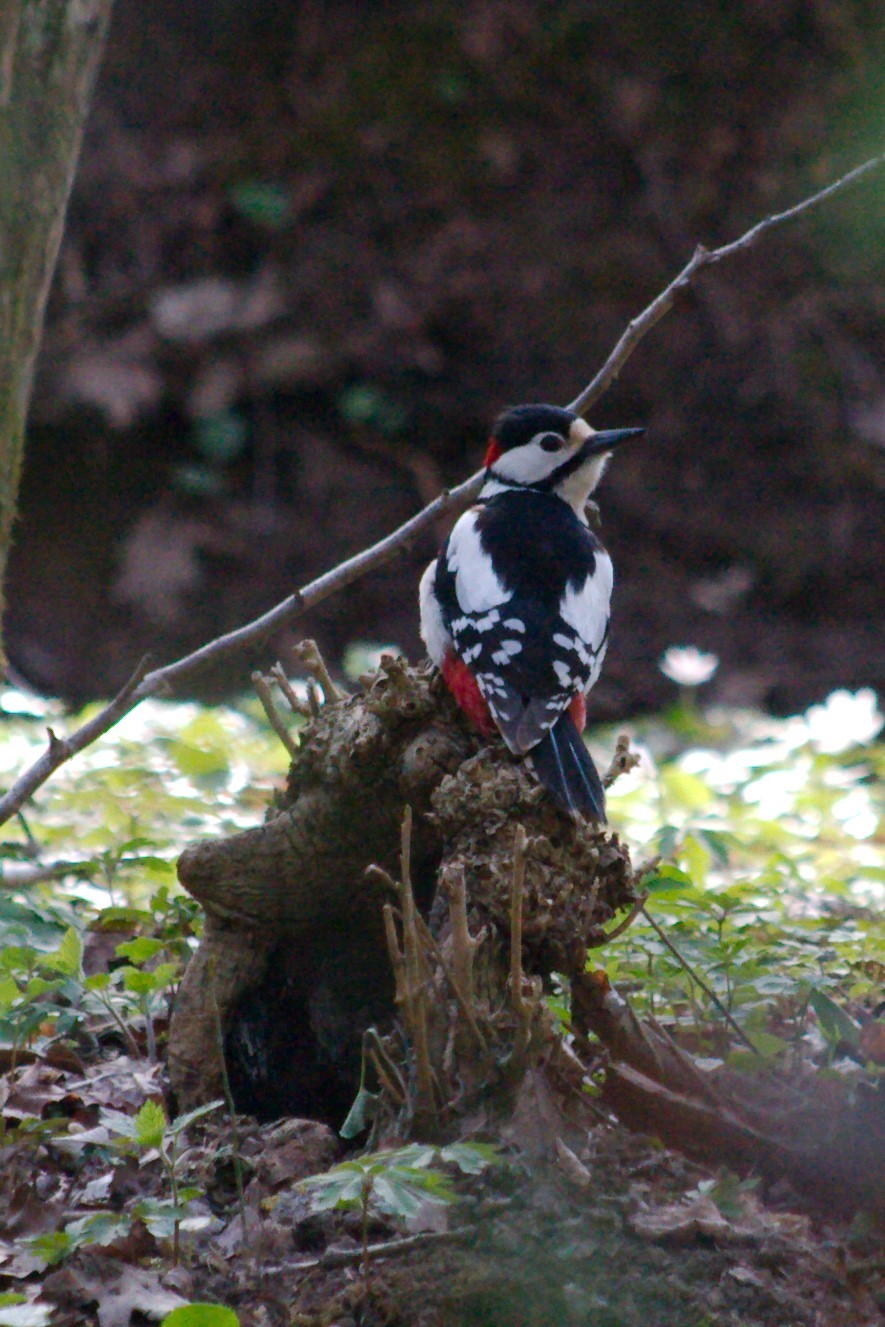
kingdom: Animalia
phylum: Chordata
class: Aves
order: Piciformes
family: Picidae
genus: Dendrocopos
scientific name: Dendrocopos major
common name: Great spotted woodpecker
